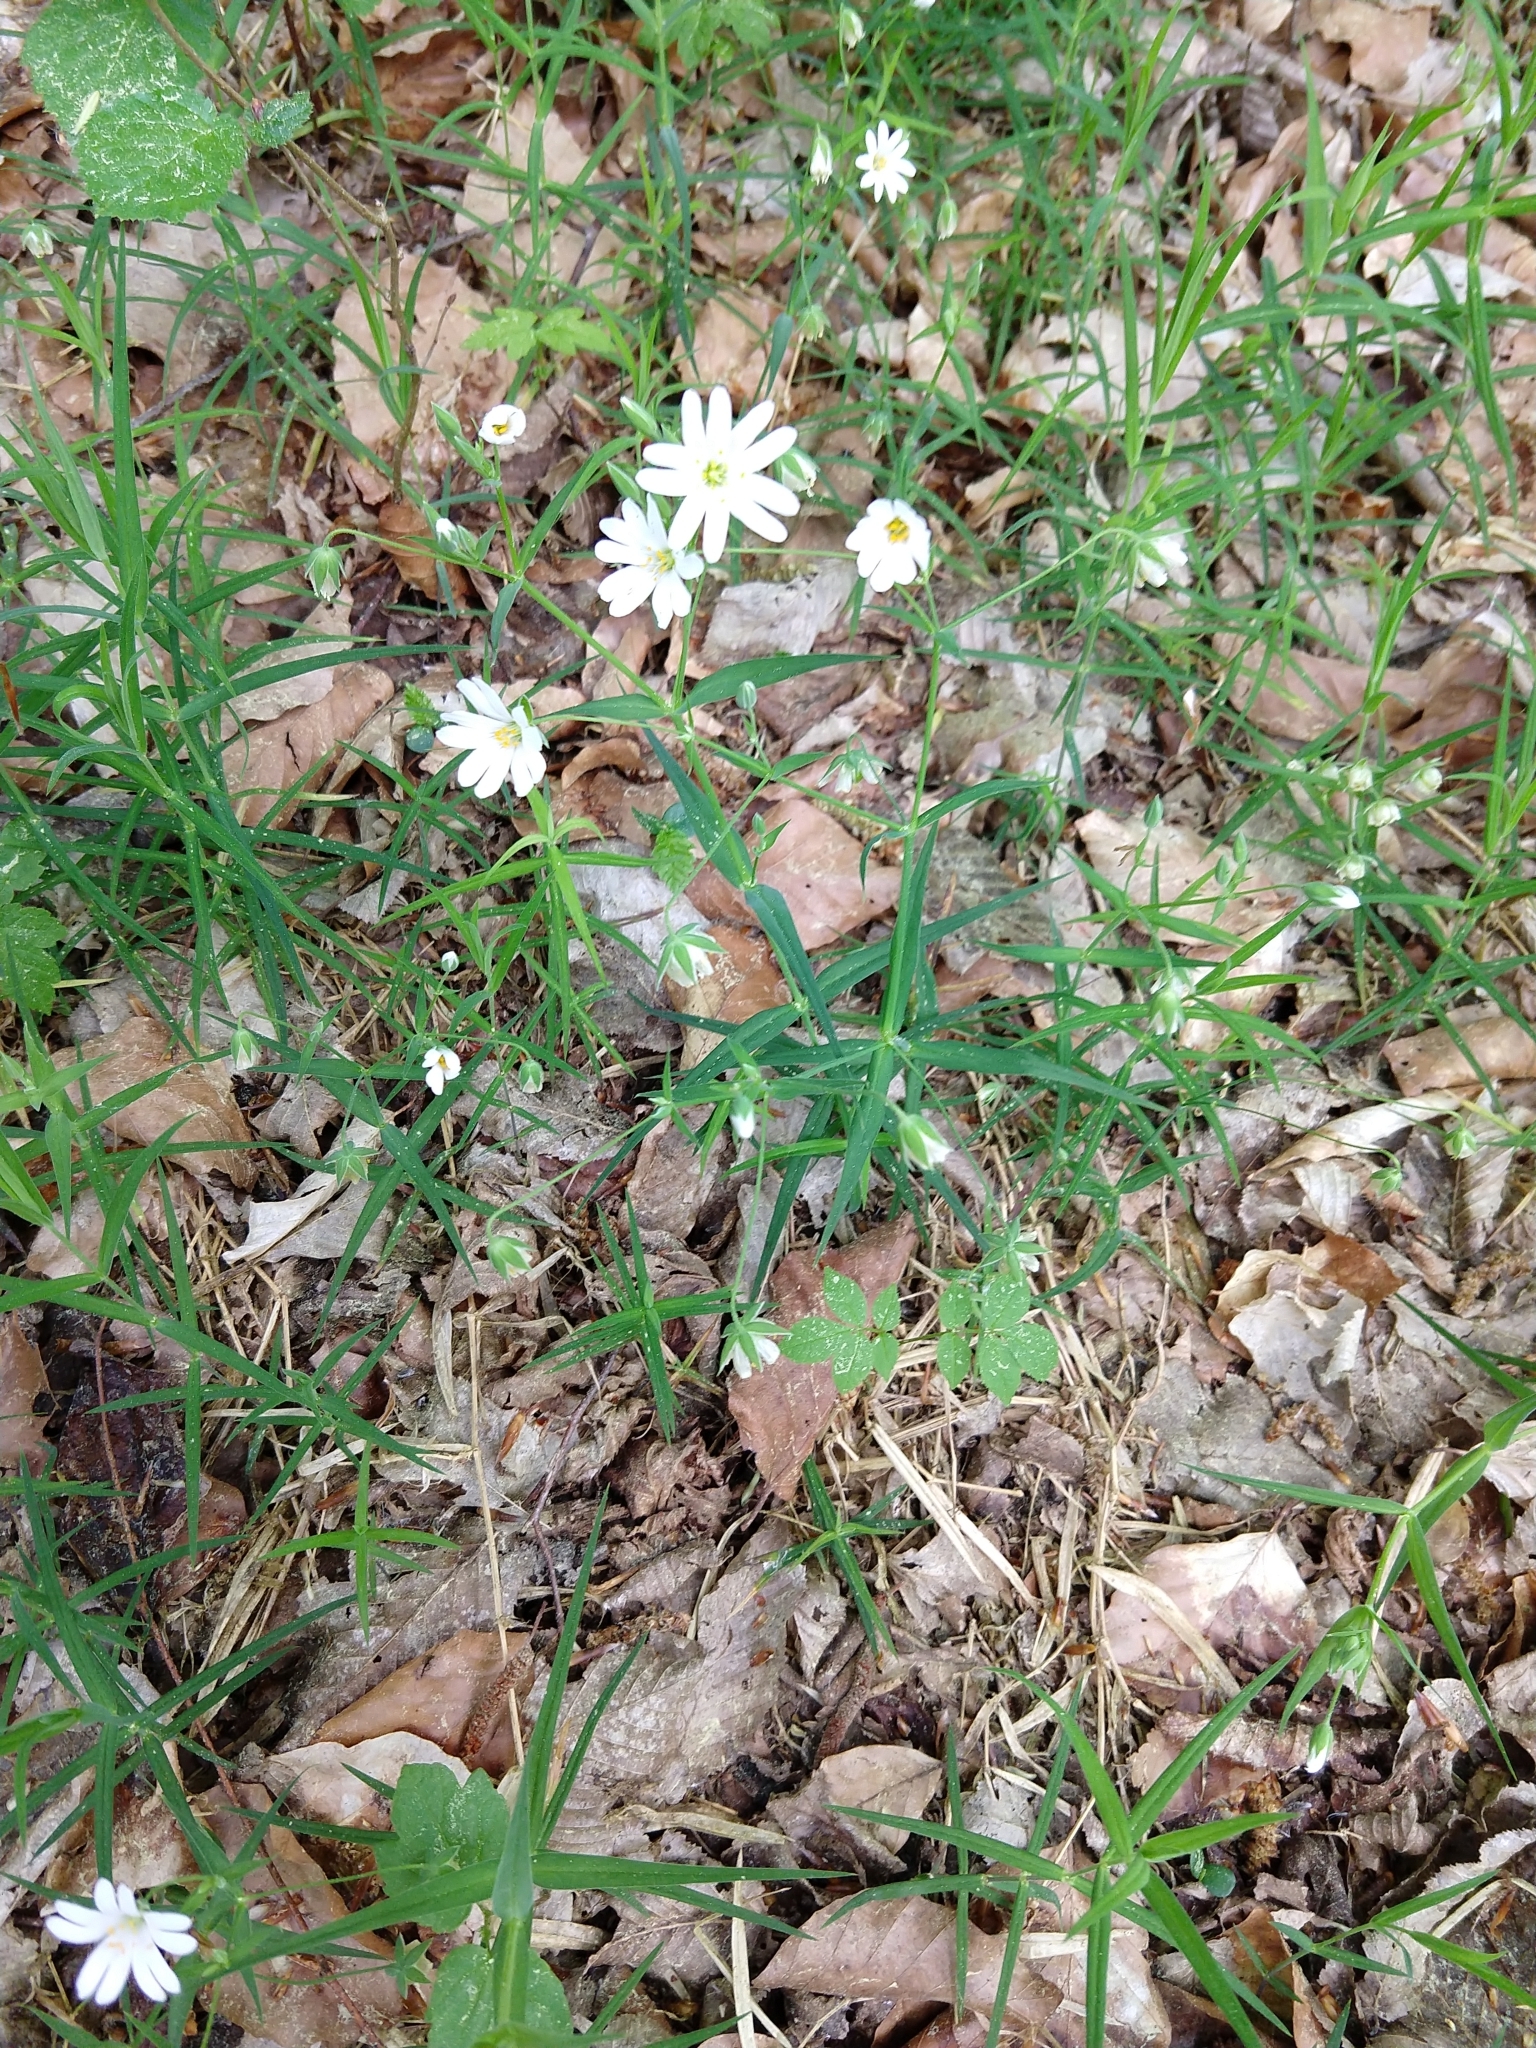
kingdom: Plantae
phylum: Tracheophyta
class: Magnoliopsida
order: Caryophyllales
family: Caryophyllaceae
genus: Rabelera
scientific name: Rabelera holostea
